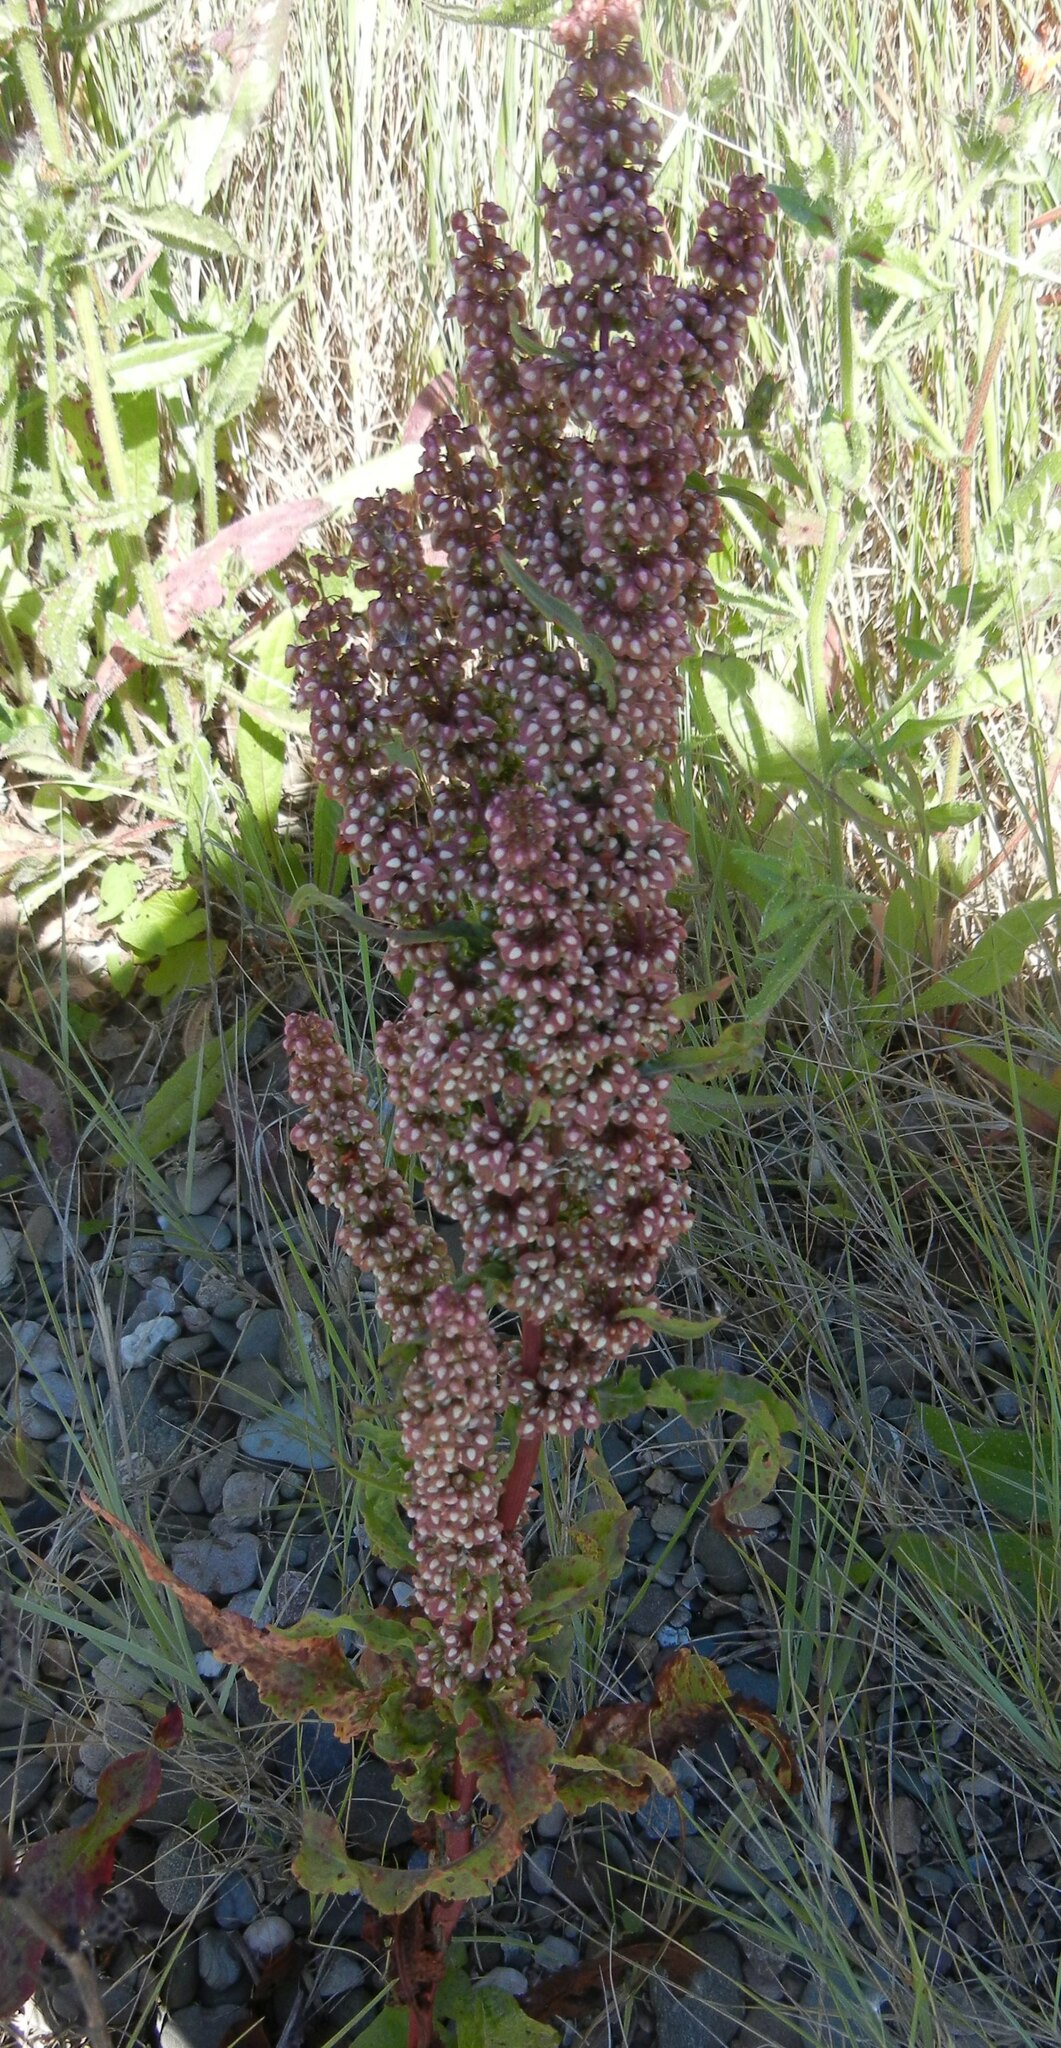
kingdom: Plantae
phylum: Tracheophyta
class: Magnoliopsida
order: Caryophyllales
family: Polygonaceae
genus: Rumex
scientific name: Rumex crispus
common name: Curled dock
